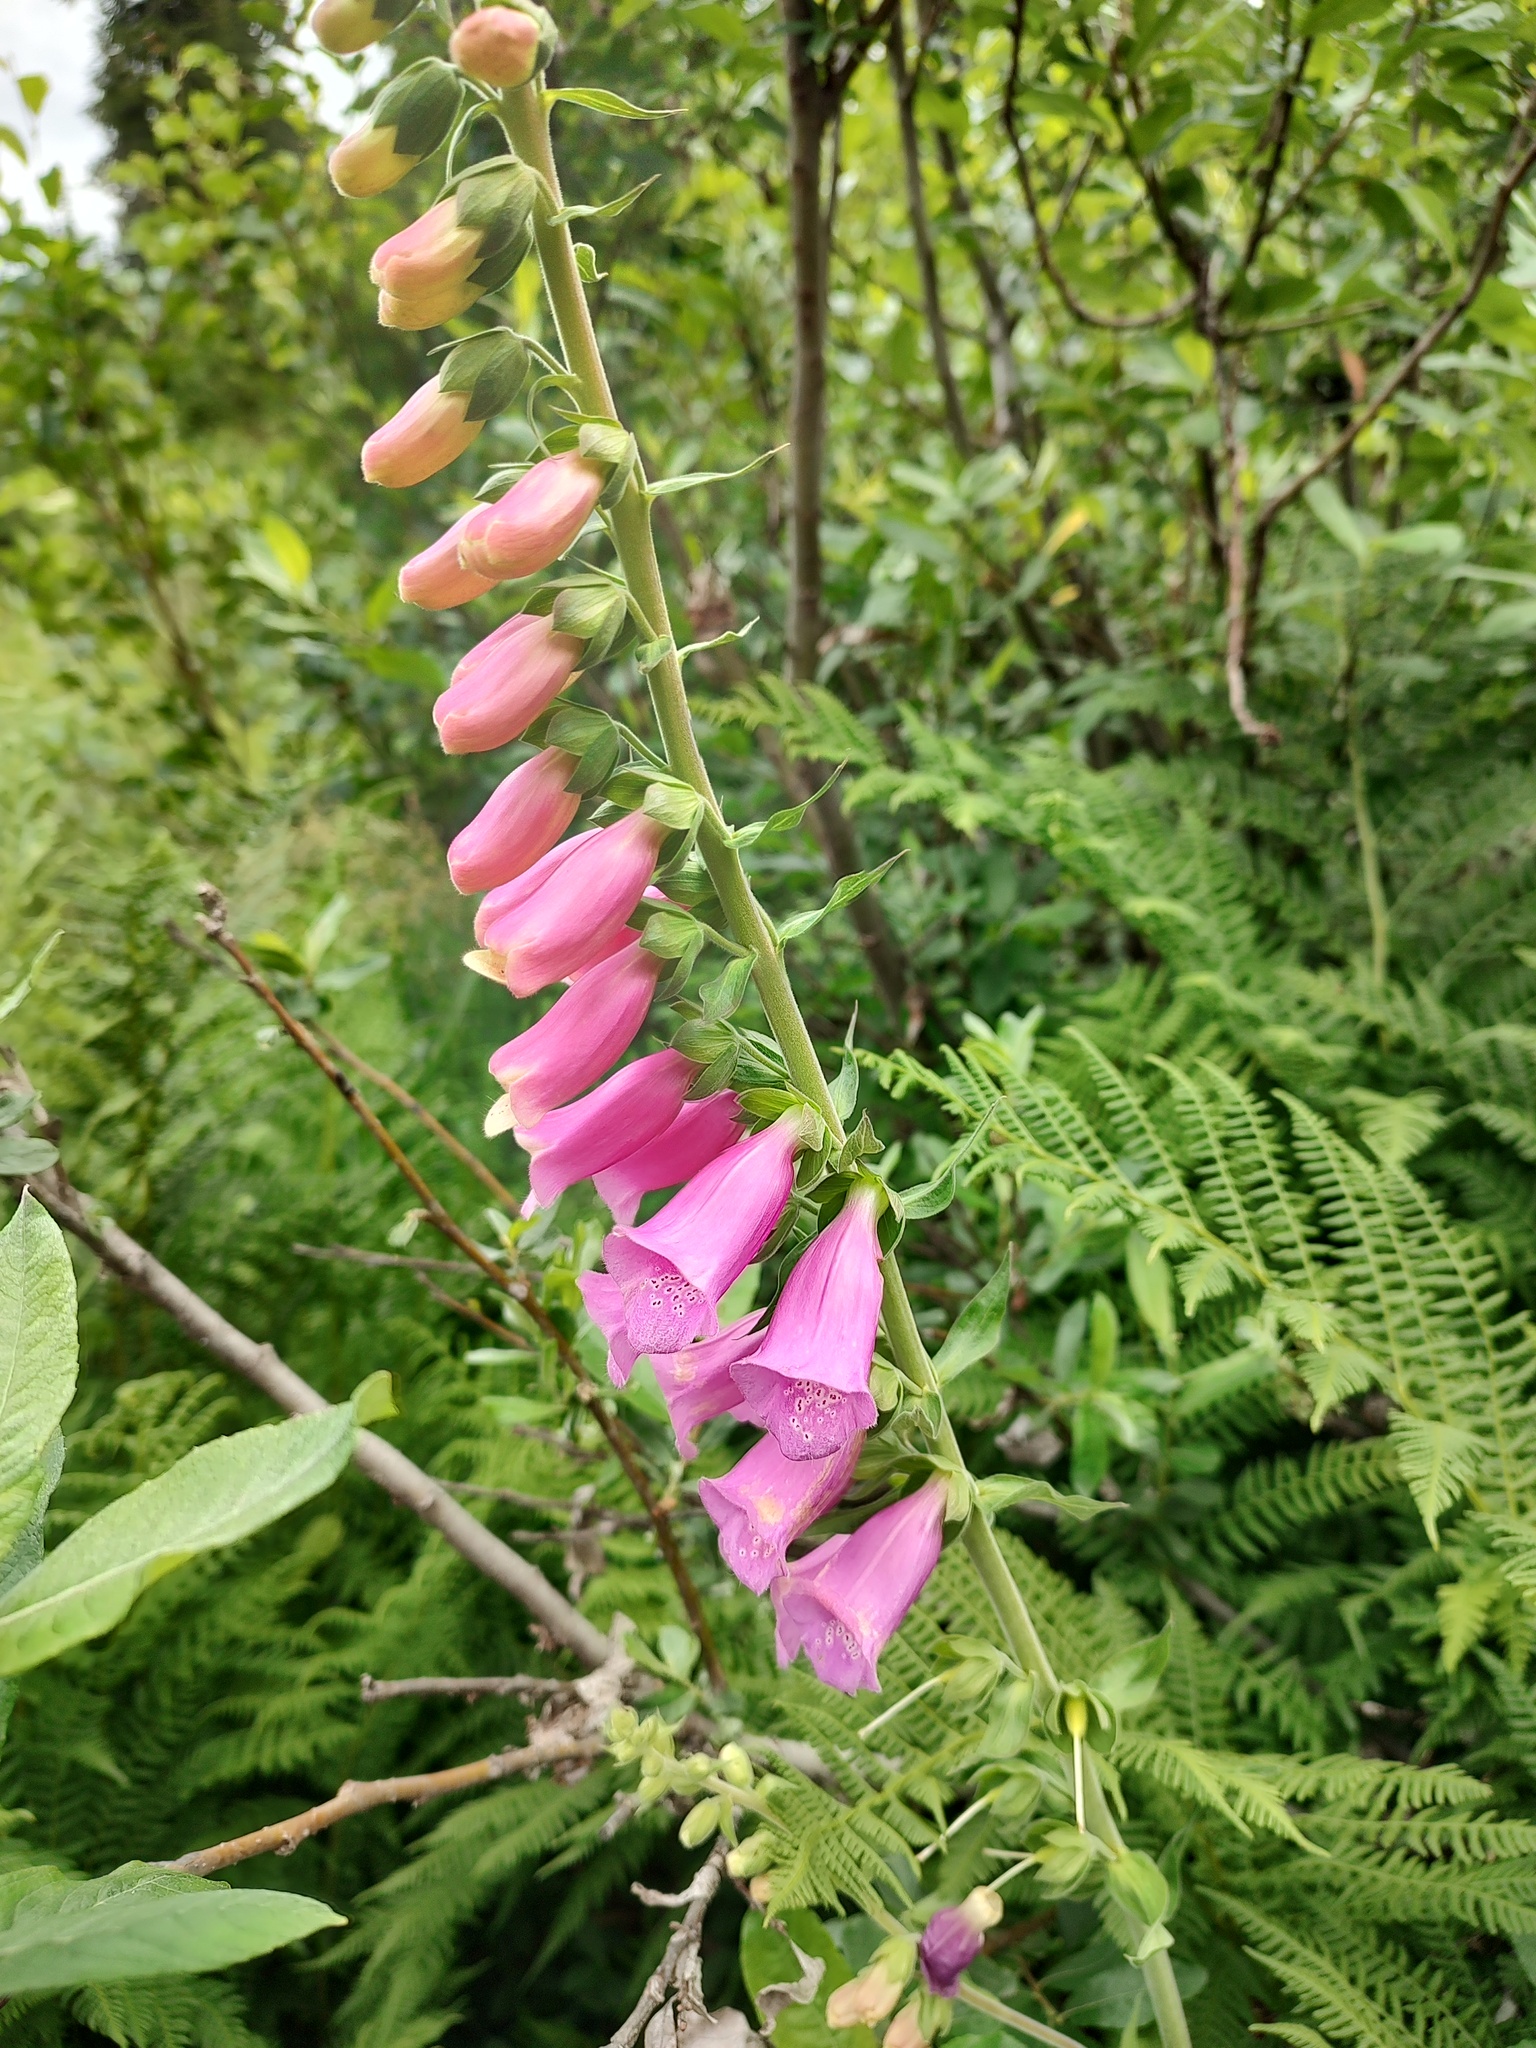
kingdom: Plantae
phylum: Tracheophyta
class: Magnoliopsida
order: Lamiales
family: Plantaginaceae
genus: Digitalis
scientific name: Digitalis purpurea
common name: Foxglove
